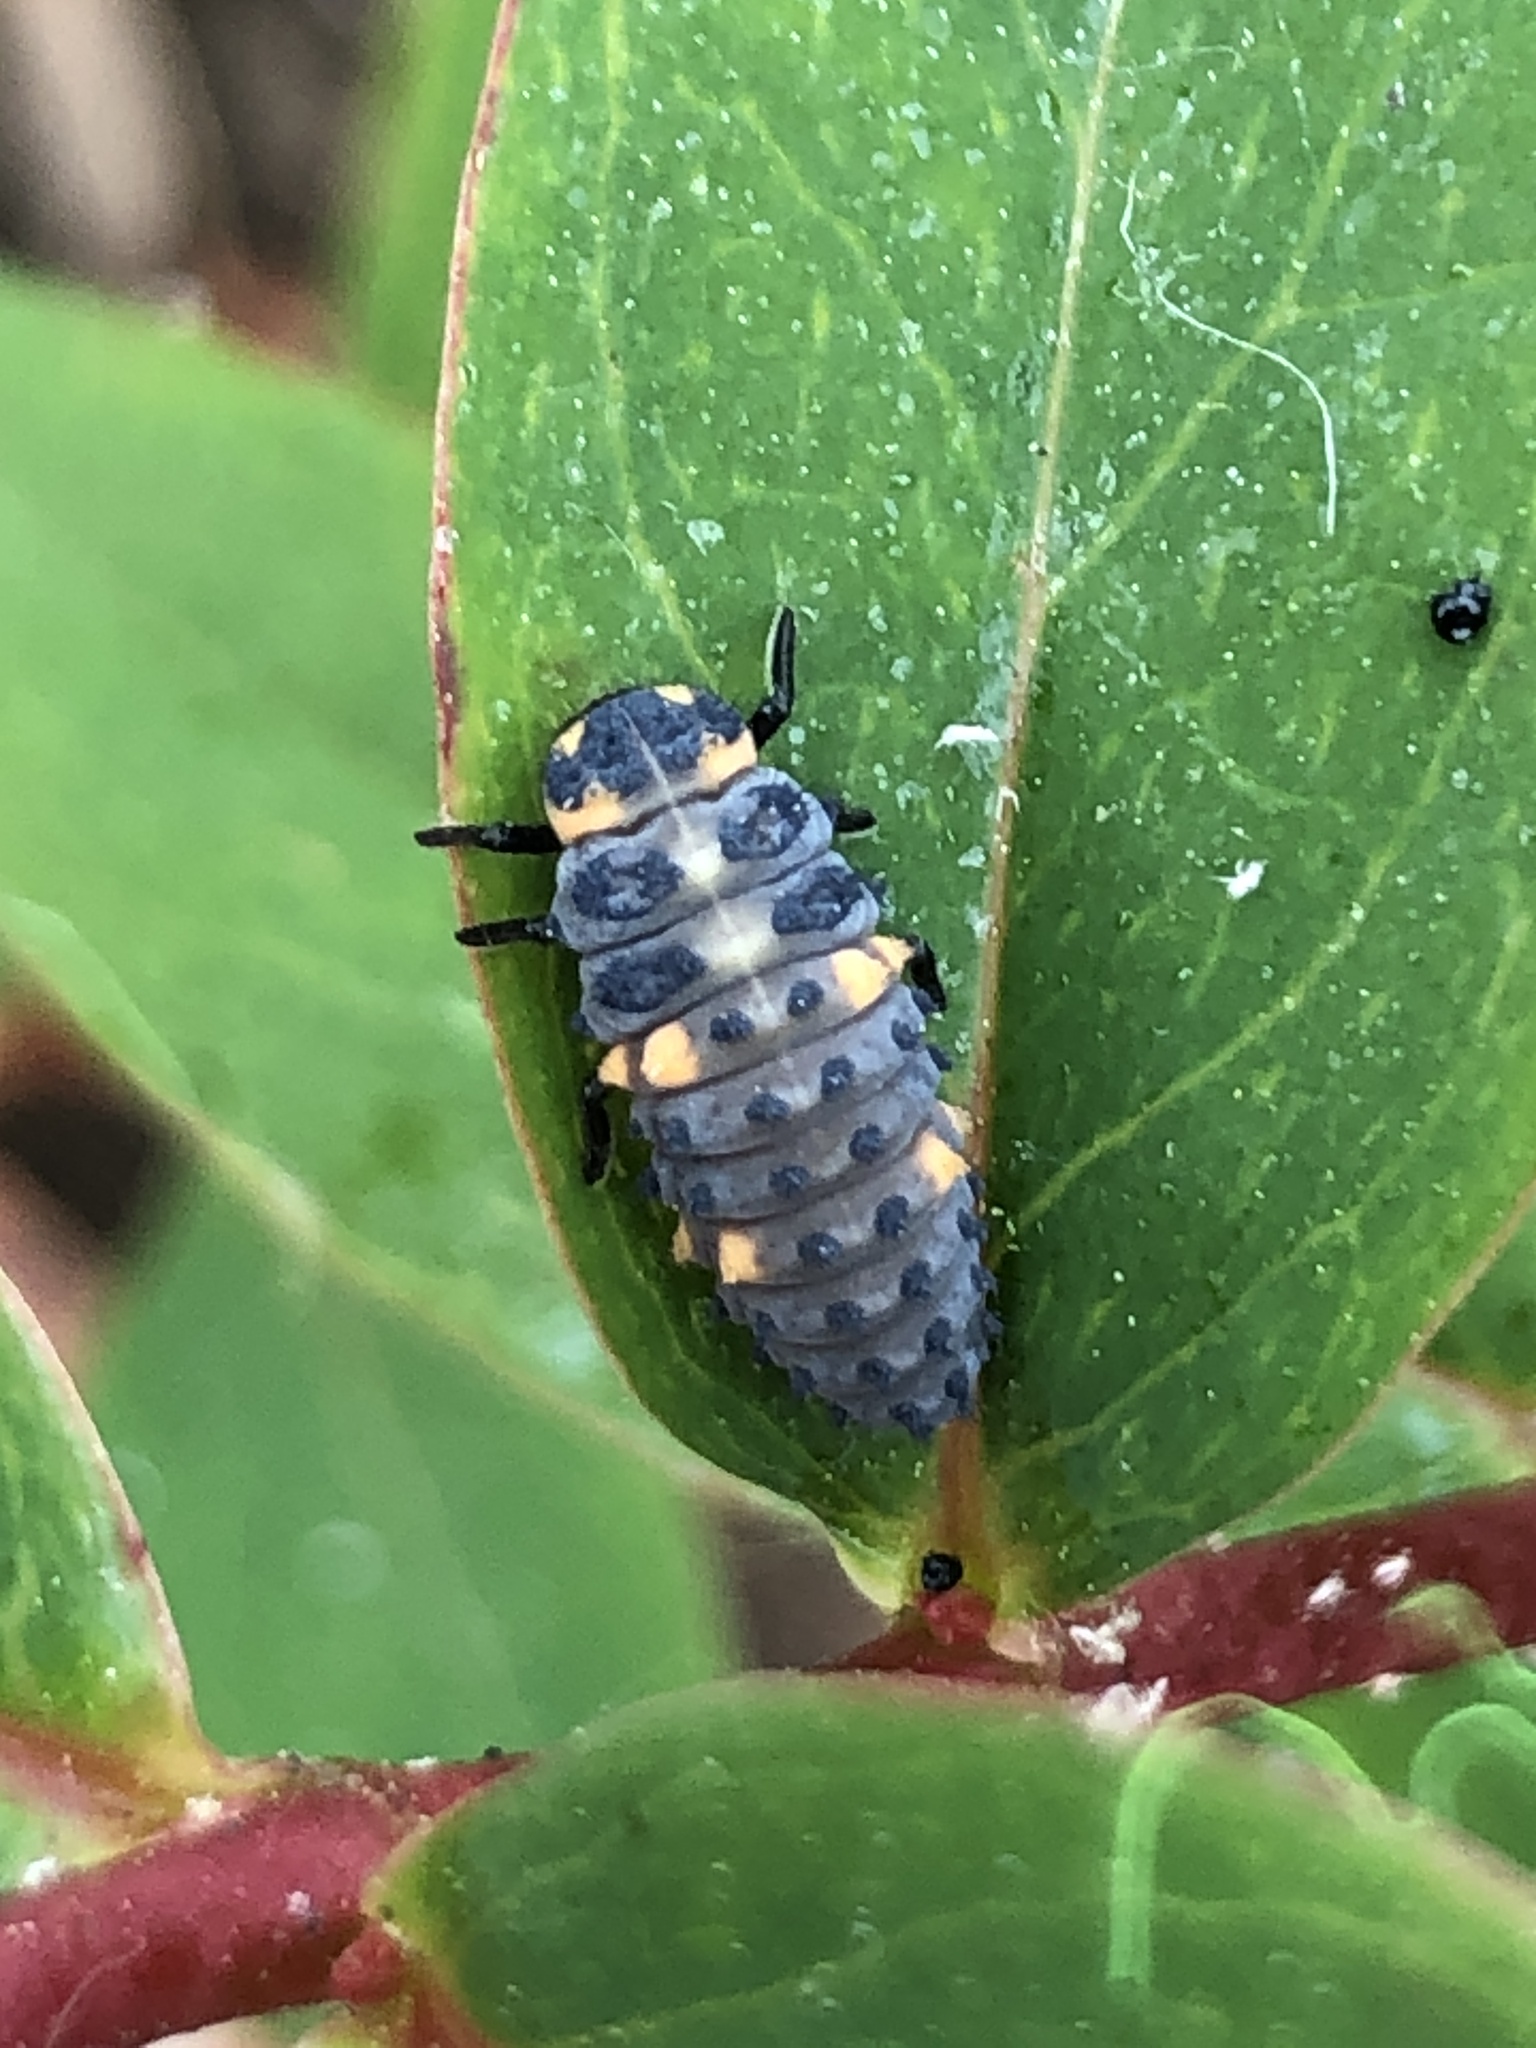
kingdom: Animalia
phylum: Arthropoda
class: Insecta
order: Coleoptera
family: Coccinellidae
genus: Coccinella
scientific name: Coccinella septempunctata
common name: Sevenspotted lady beetle
